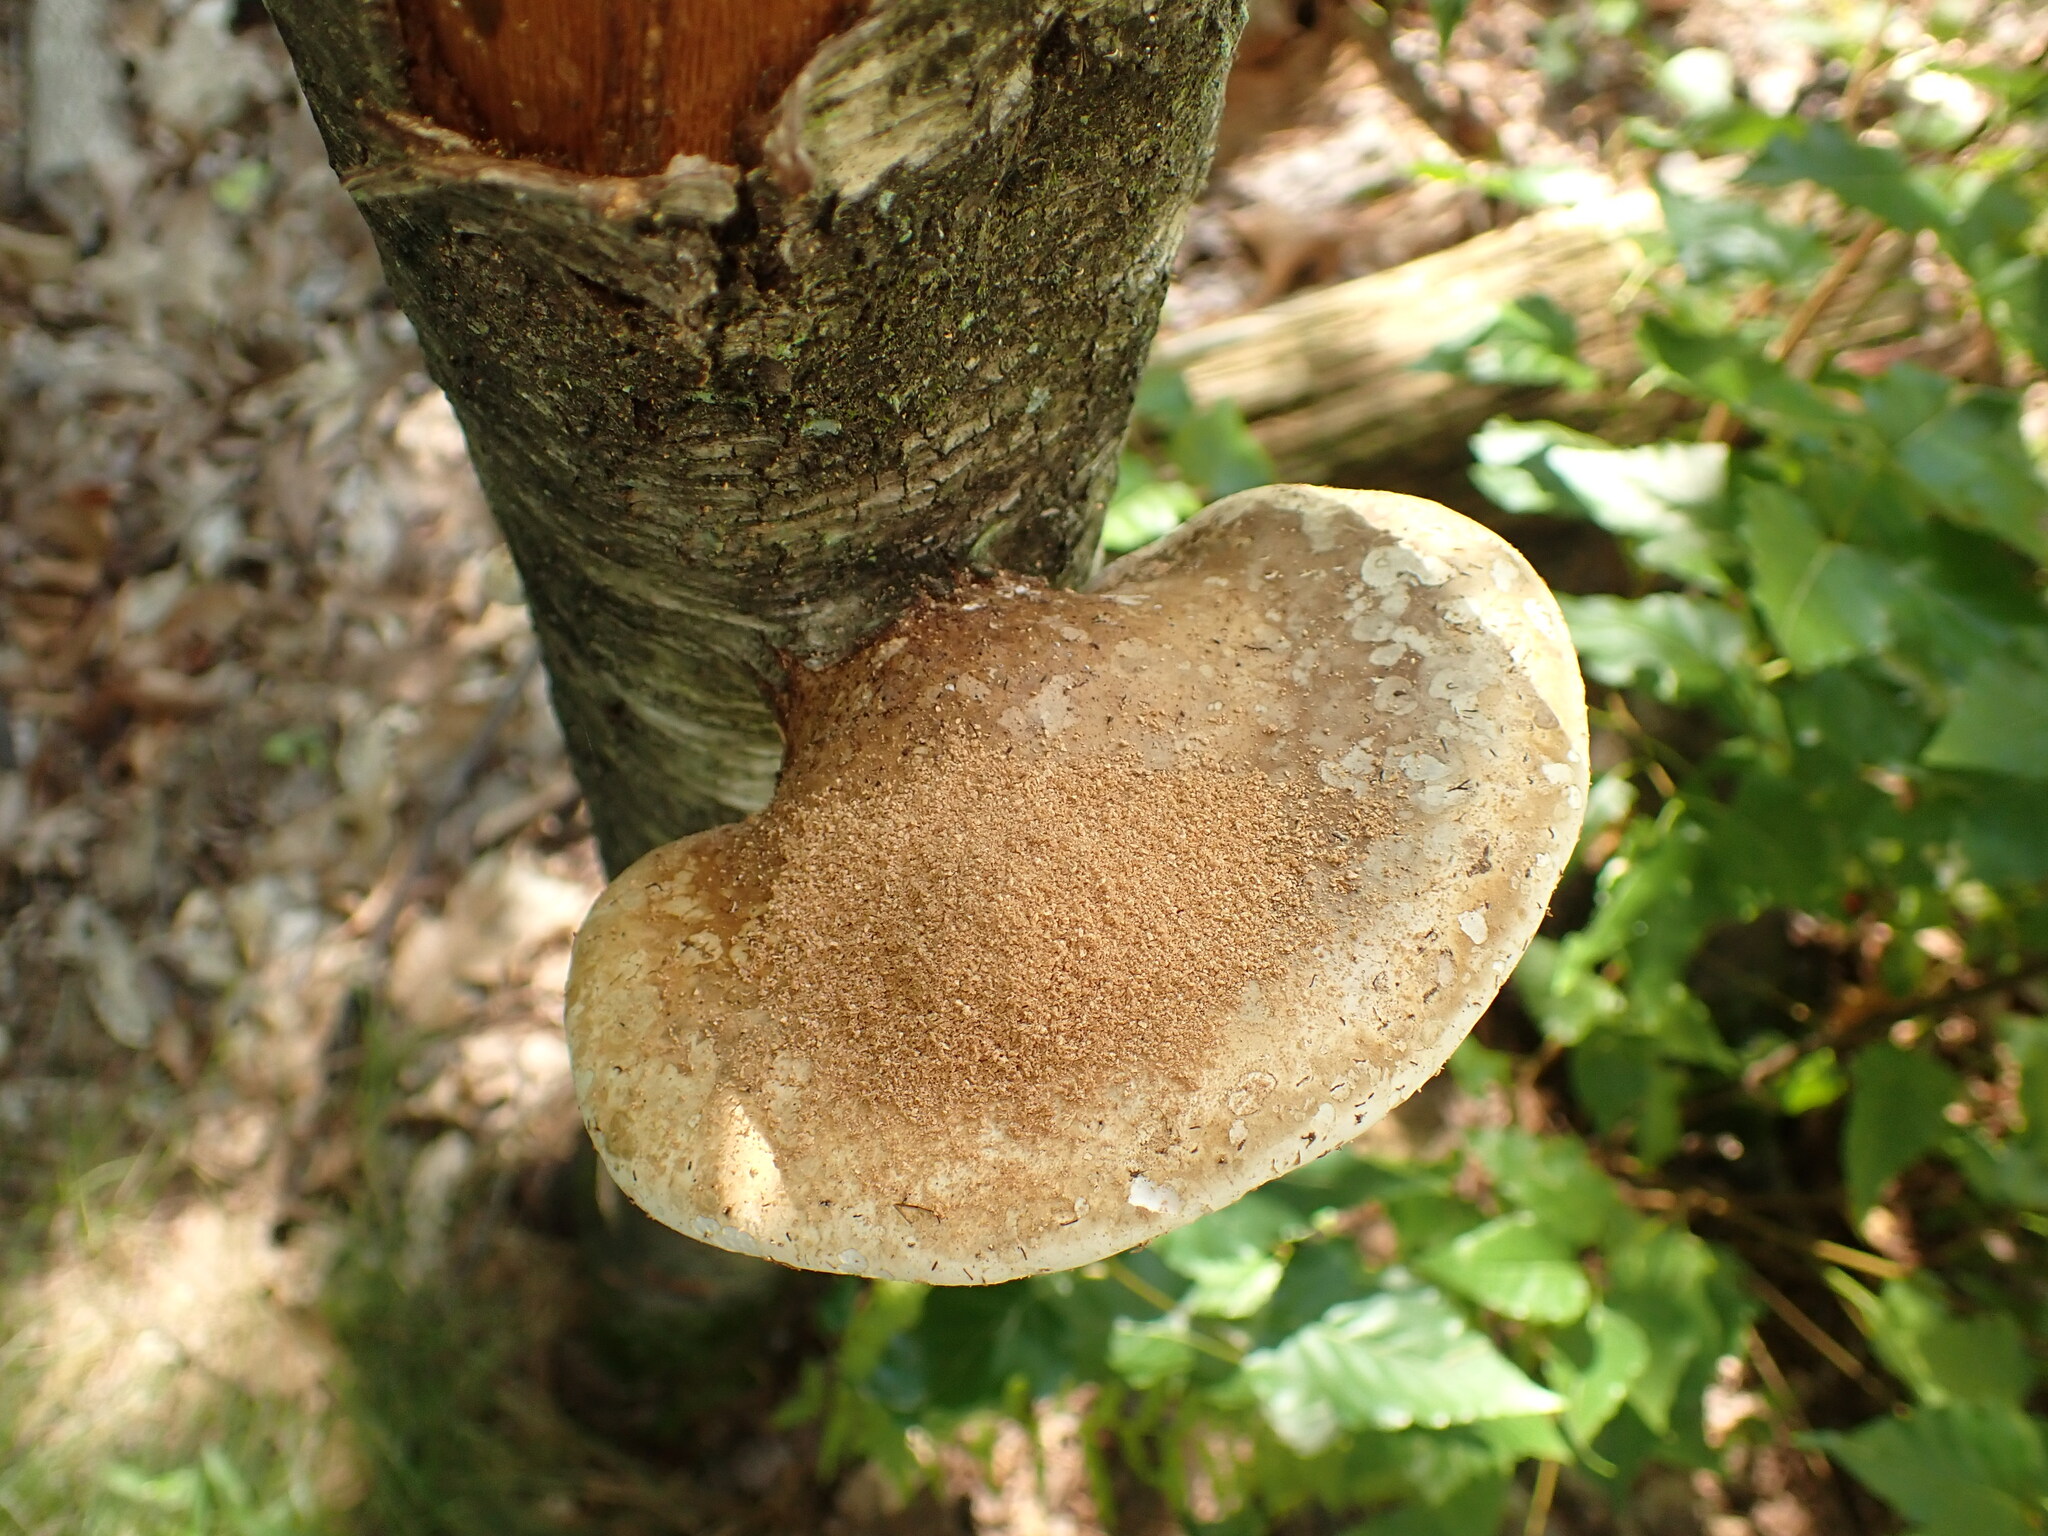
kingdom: Fungi
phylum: Basidiomycota
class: Agaricomycetes
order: Polyporales
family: Fomitopsidaceae
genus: Fomitopsis
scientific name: Fomitopsis betulina
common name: Birch polypore
